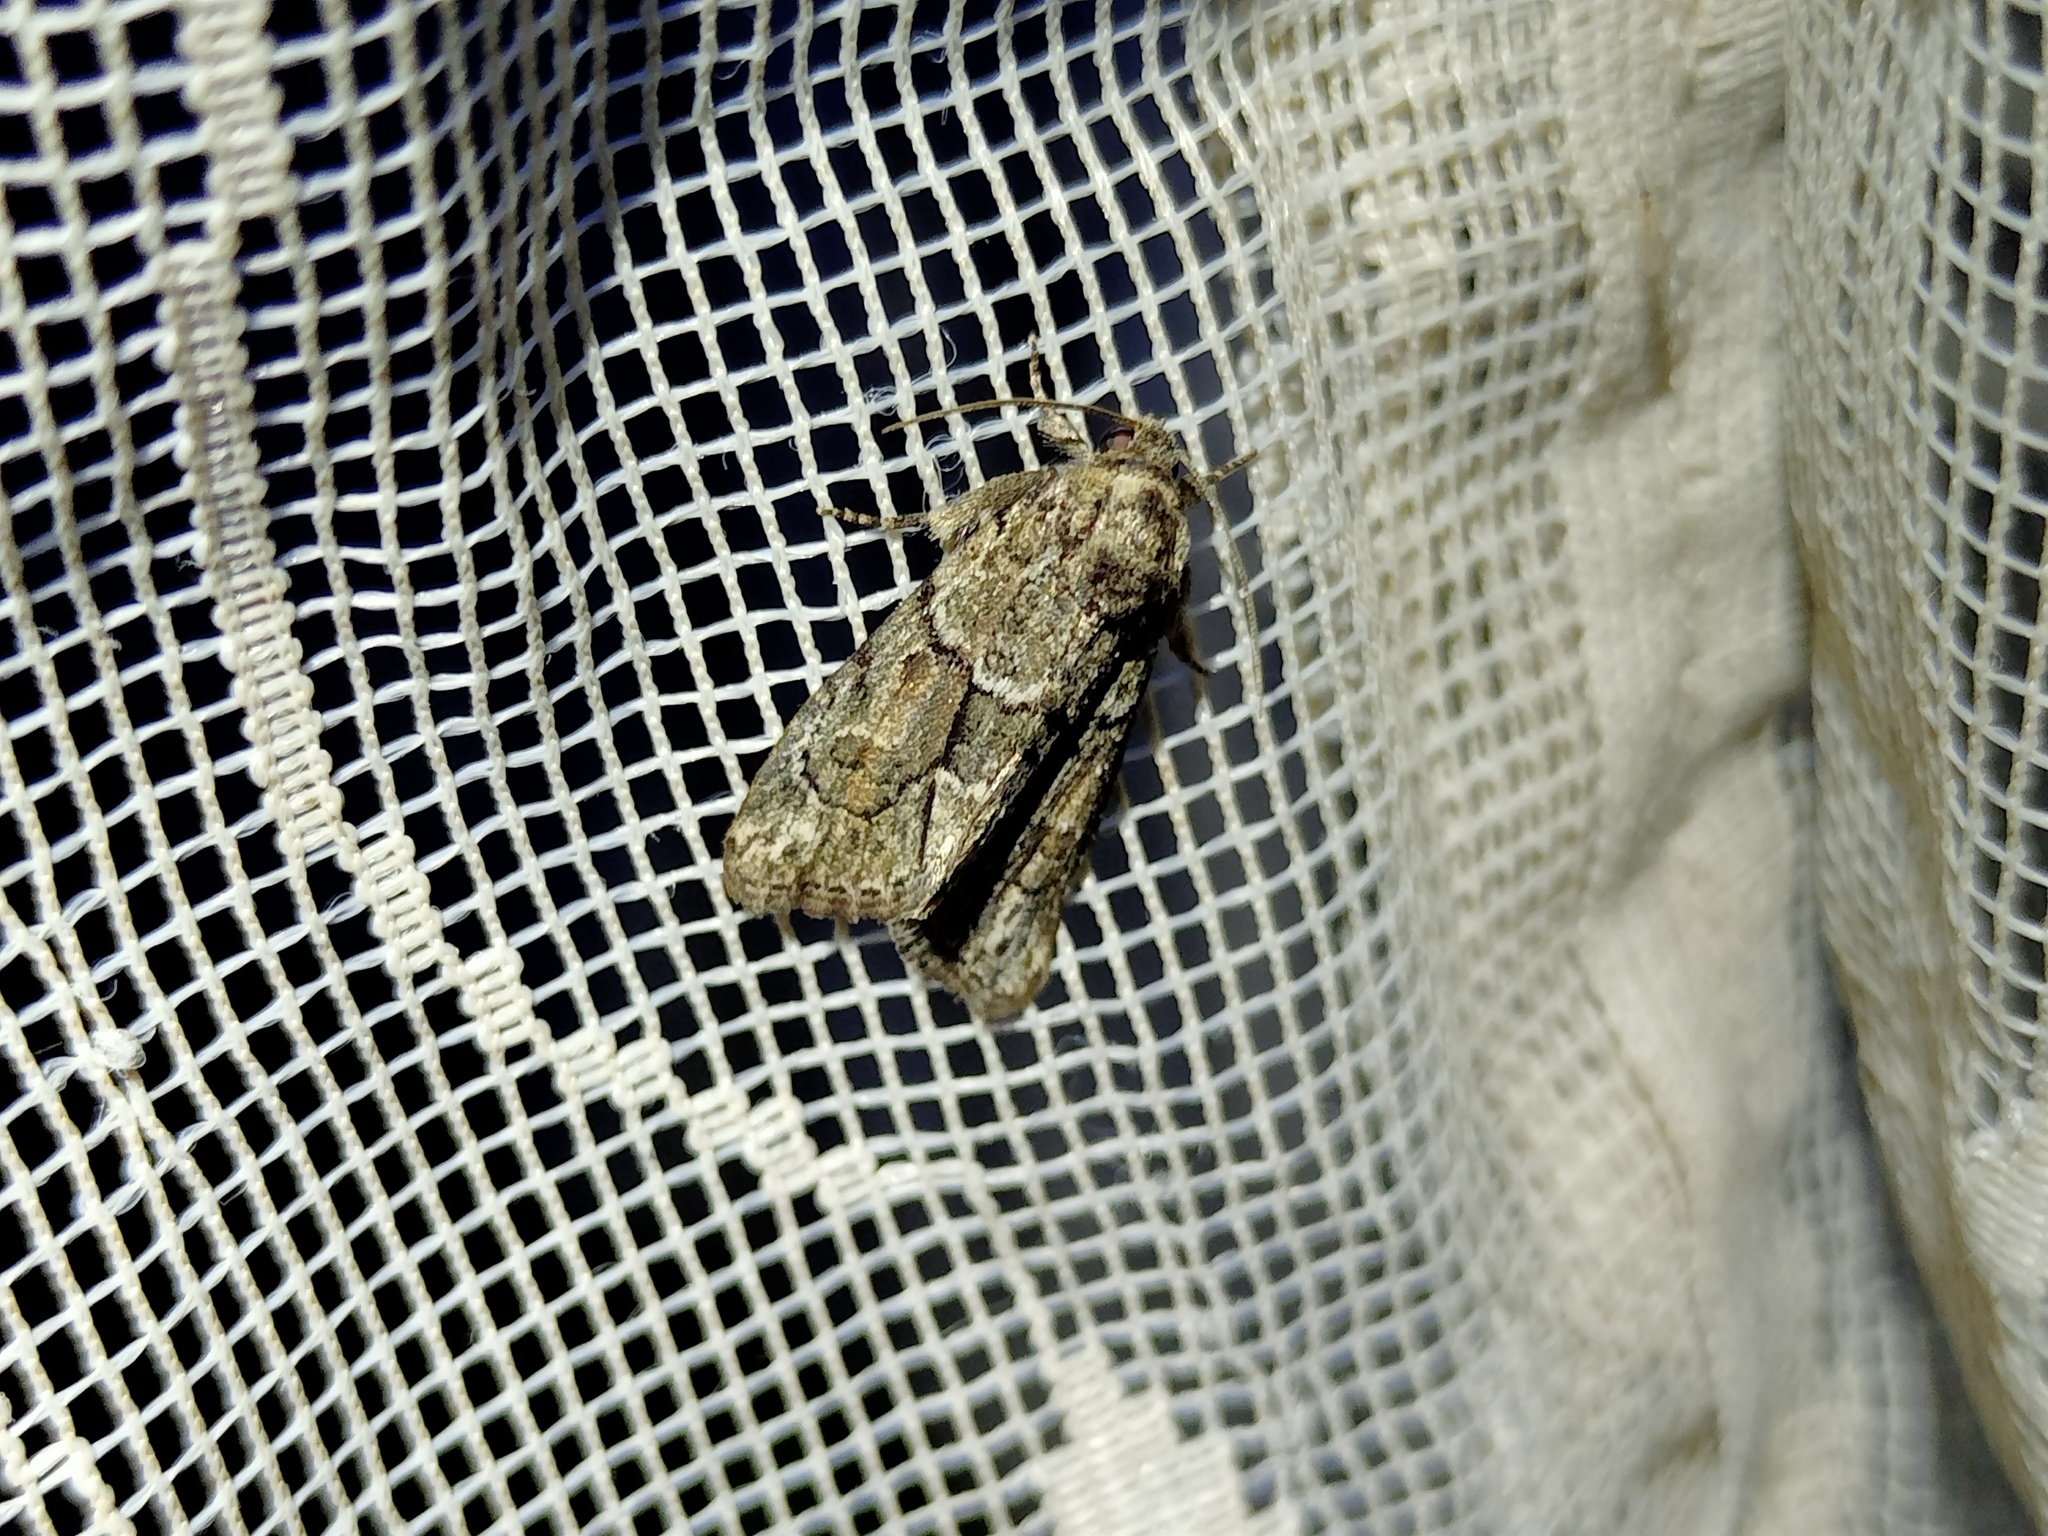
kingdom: Animalia
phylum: Arthropoda
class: Insecta
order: Lepidoptera
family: Noctuidae
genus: Cryphia
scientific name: Cryphia fraudatricula
